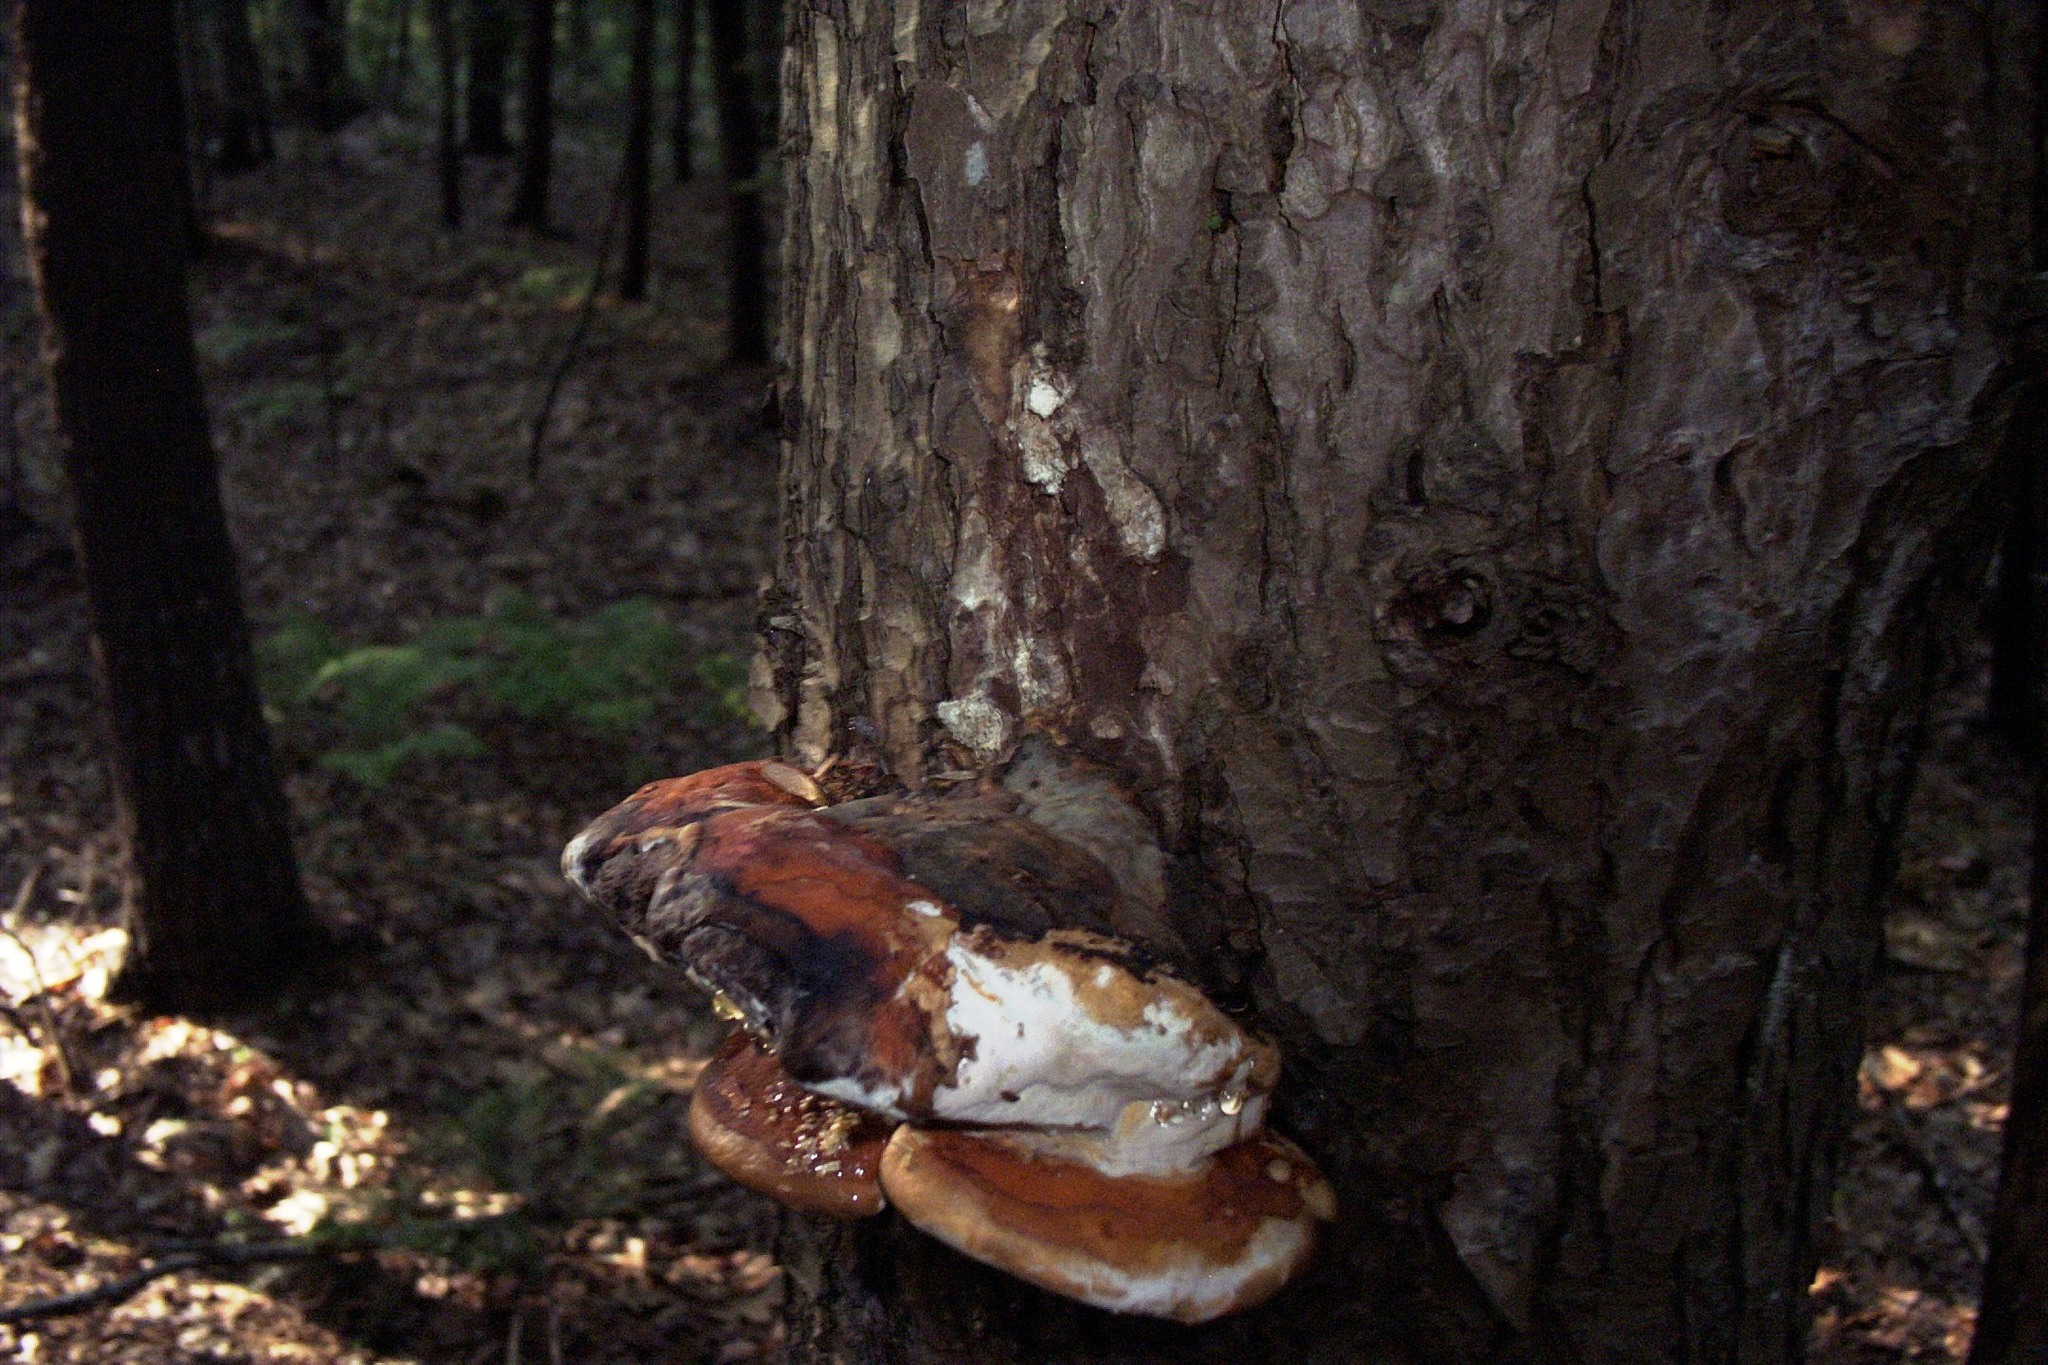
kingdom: Fungi
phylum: Basidiomycota
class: Agaricomycetes
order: Polyporales
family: Fomitopsidaceae
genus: Fomitopsis
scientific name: Fomitopsis mounceae
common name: Northern red belt
